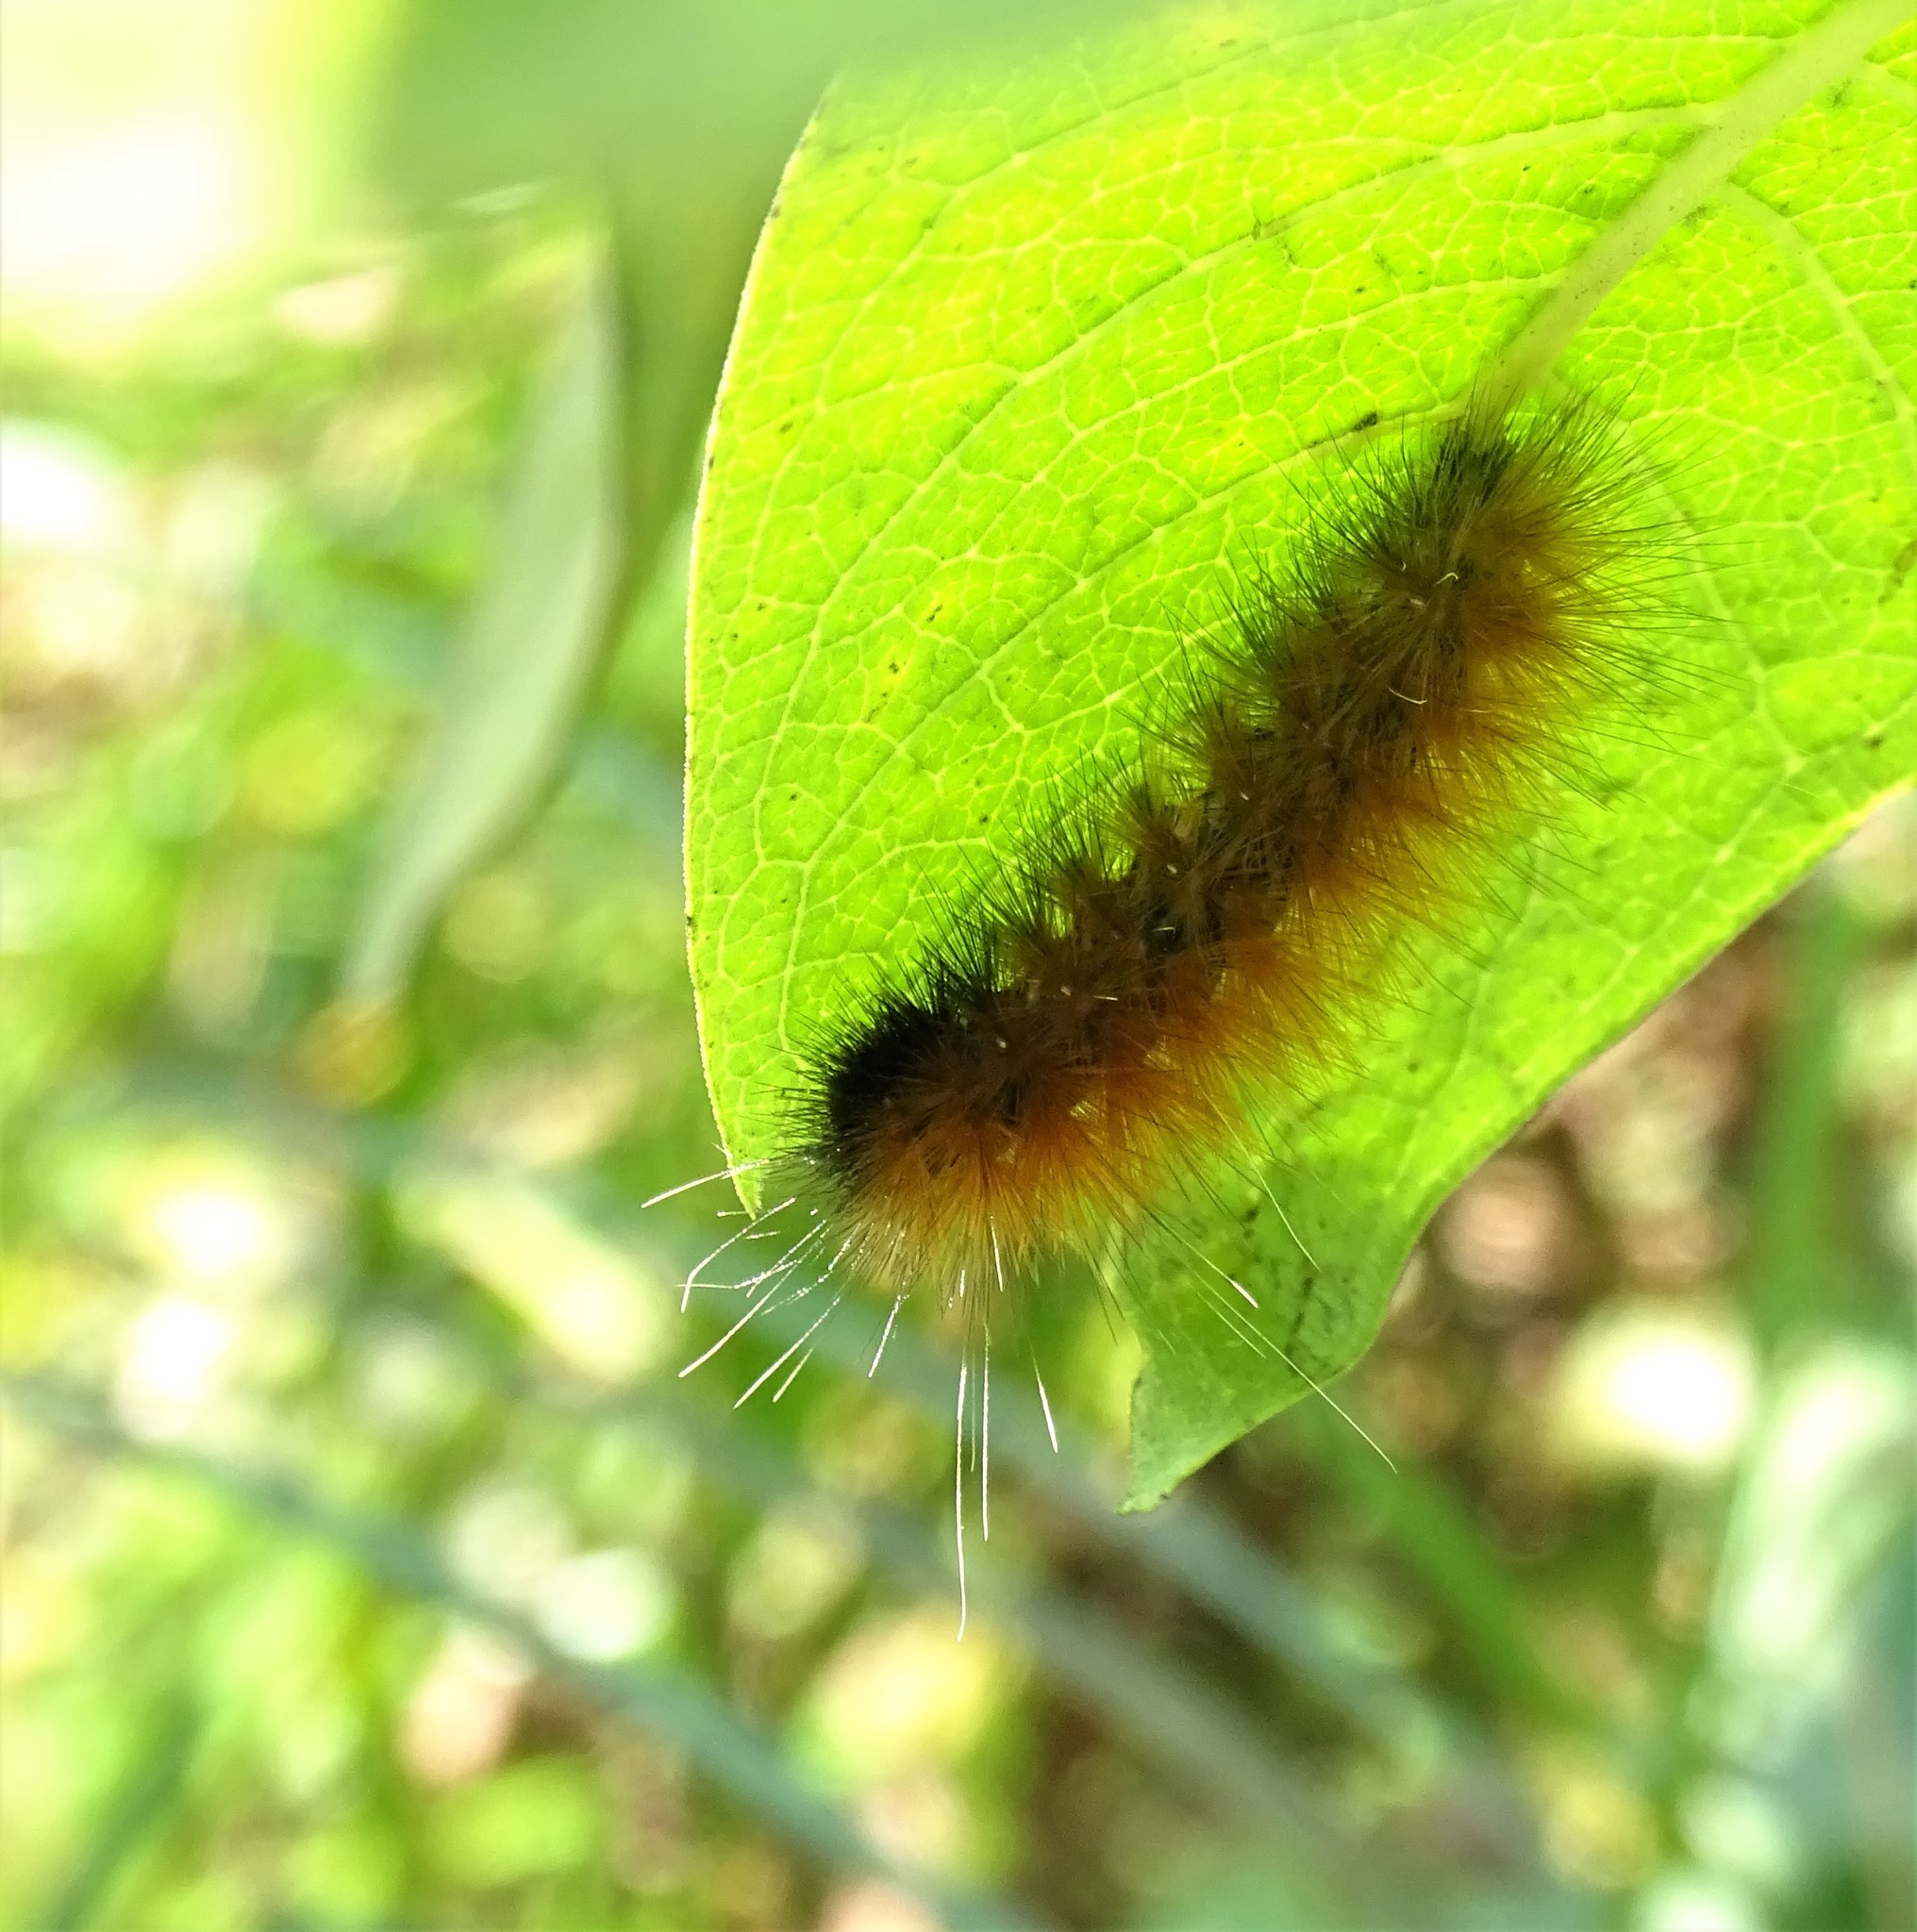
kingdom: Animalia
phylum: Arthropoda
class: Insecta
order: Lepidoptera
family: Erebidae
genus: Spilosoma
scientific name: Spilosoma virginica
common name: Virginia tiger moth
